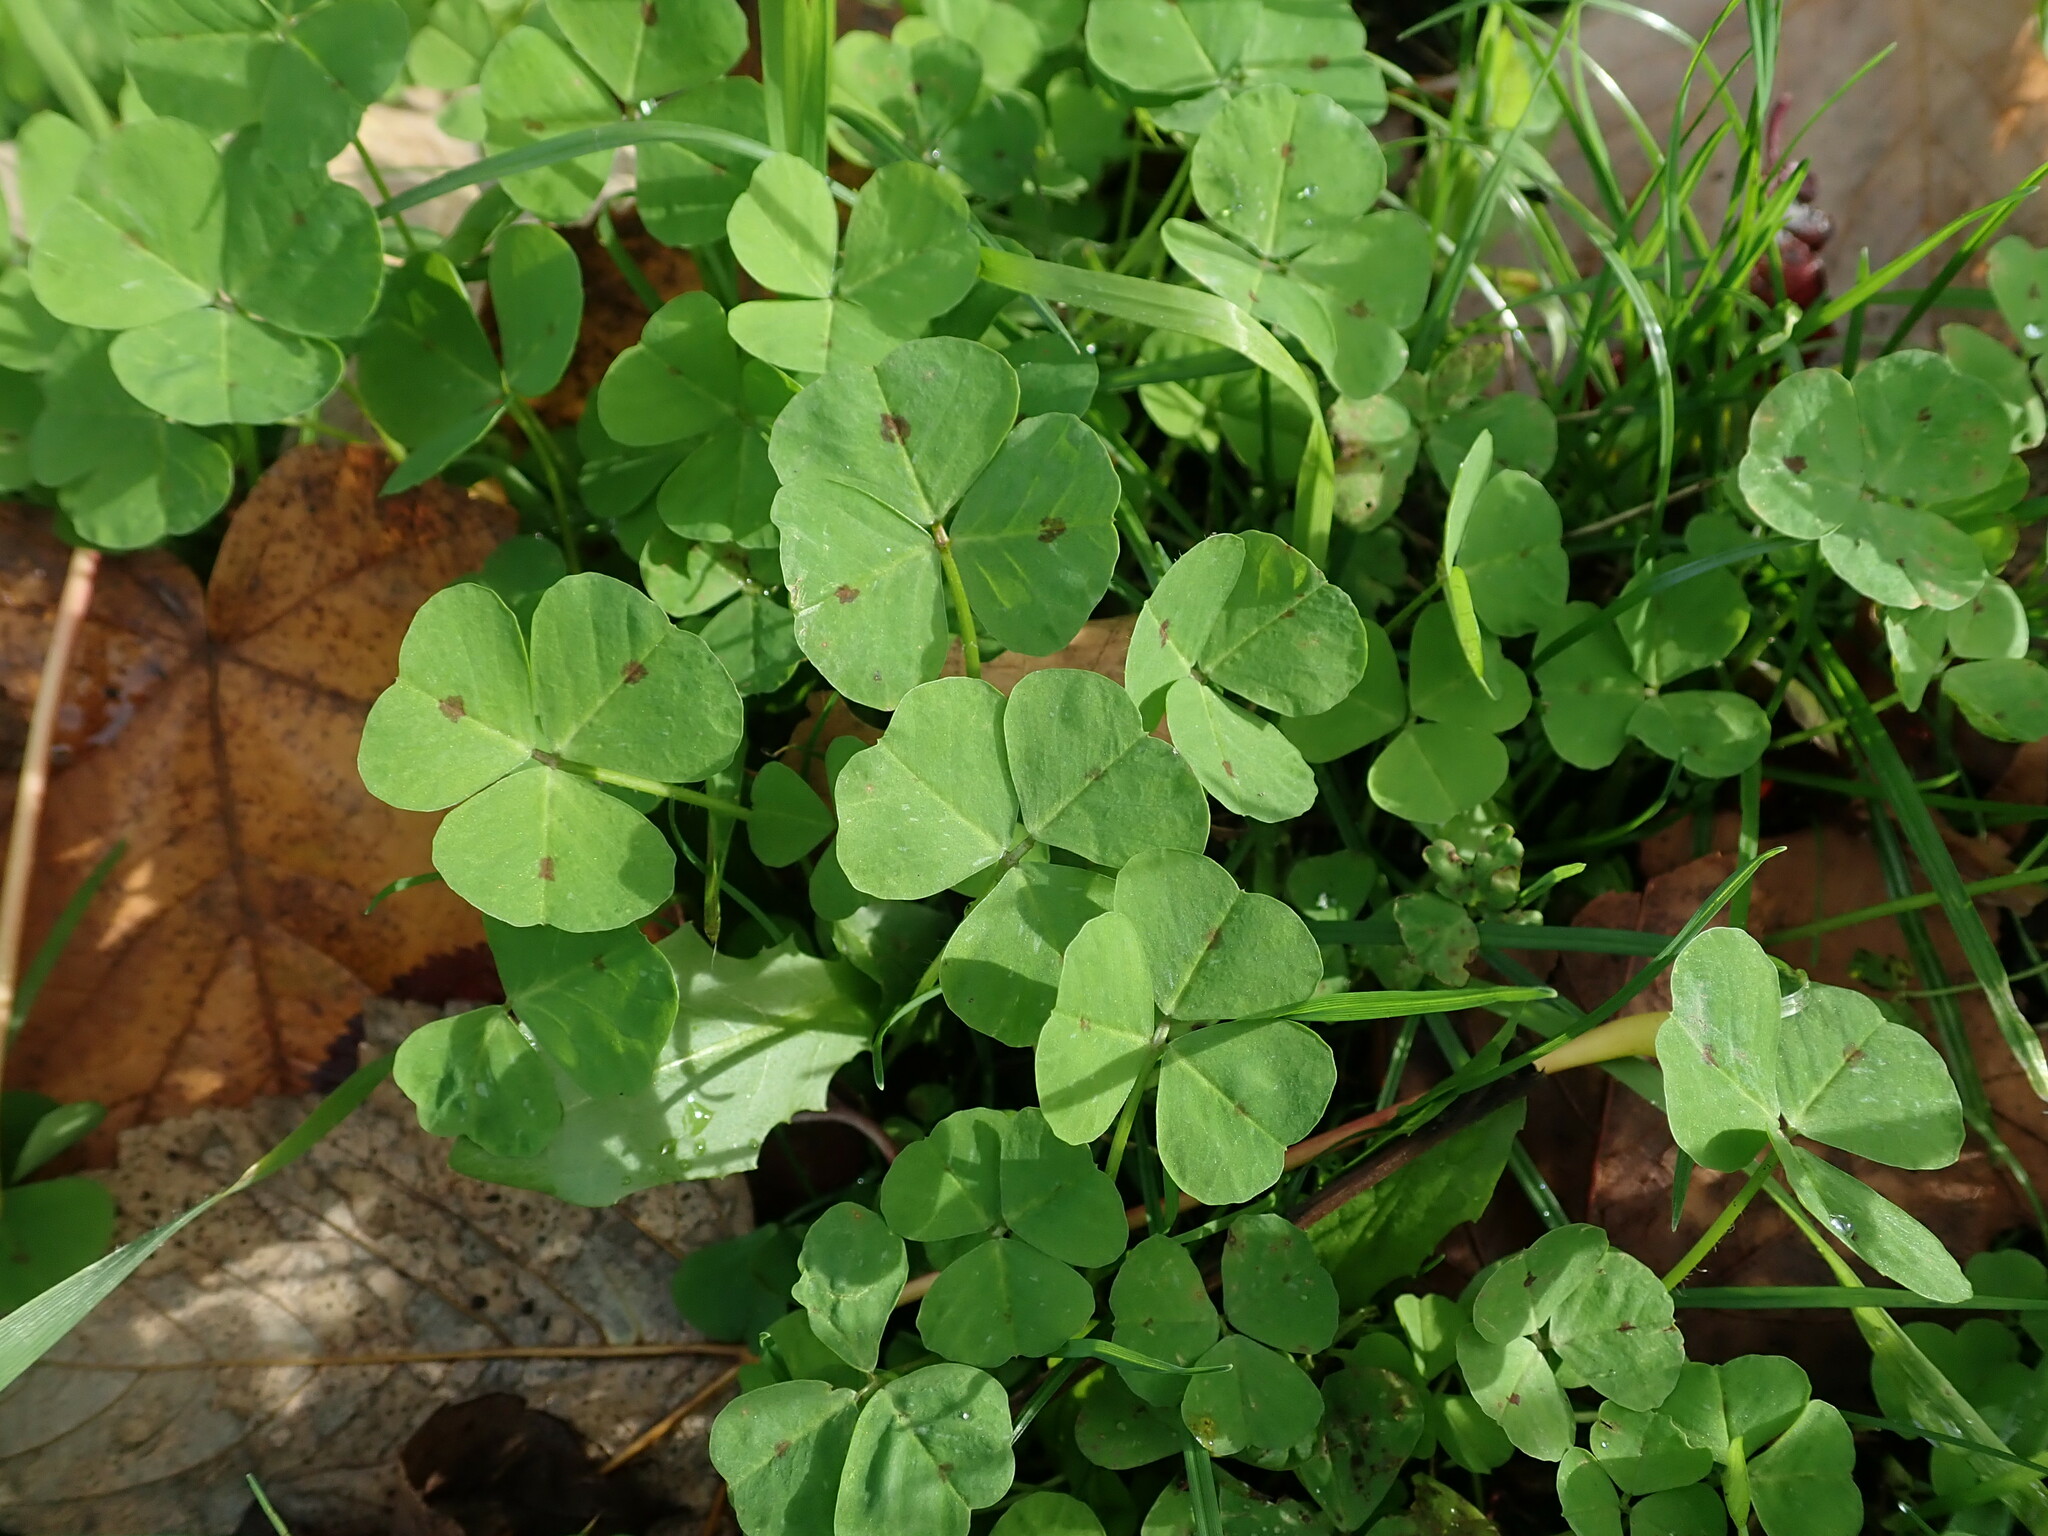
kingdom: Plantae
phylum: Tracheophyta
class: Magnoliopsida
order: Fabales
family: Fabaceae
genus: Medicago
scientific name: Medicago arabica
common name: Spotted medick
